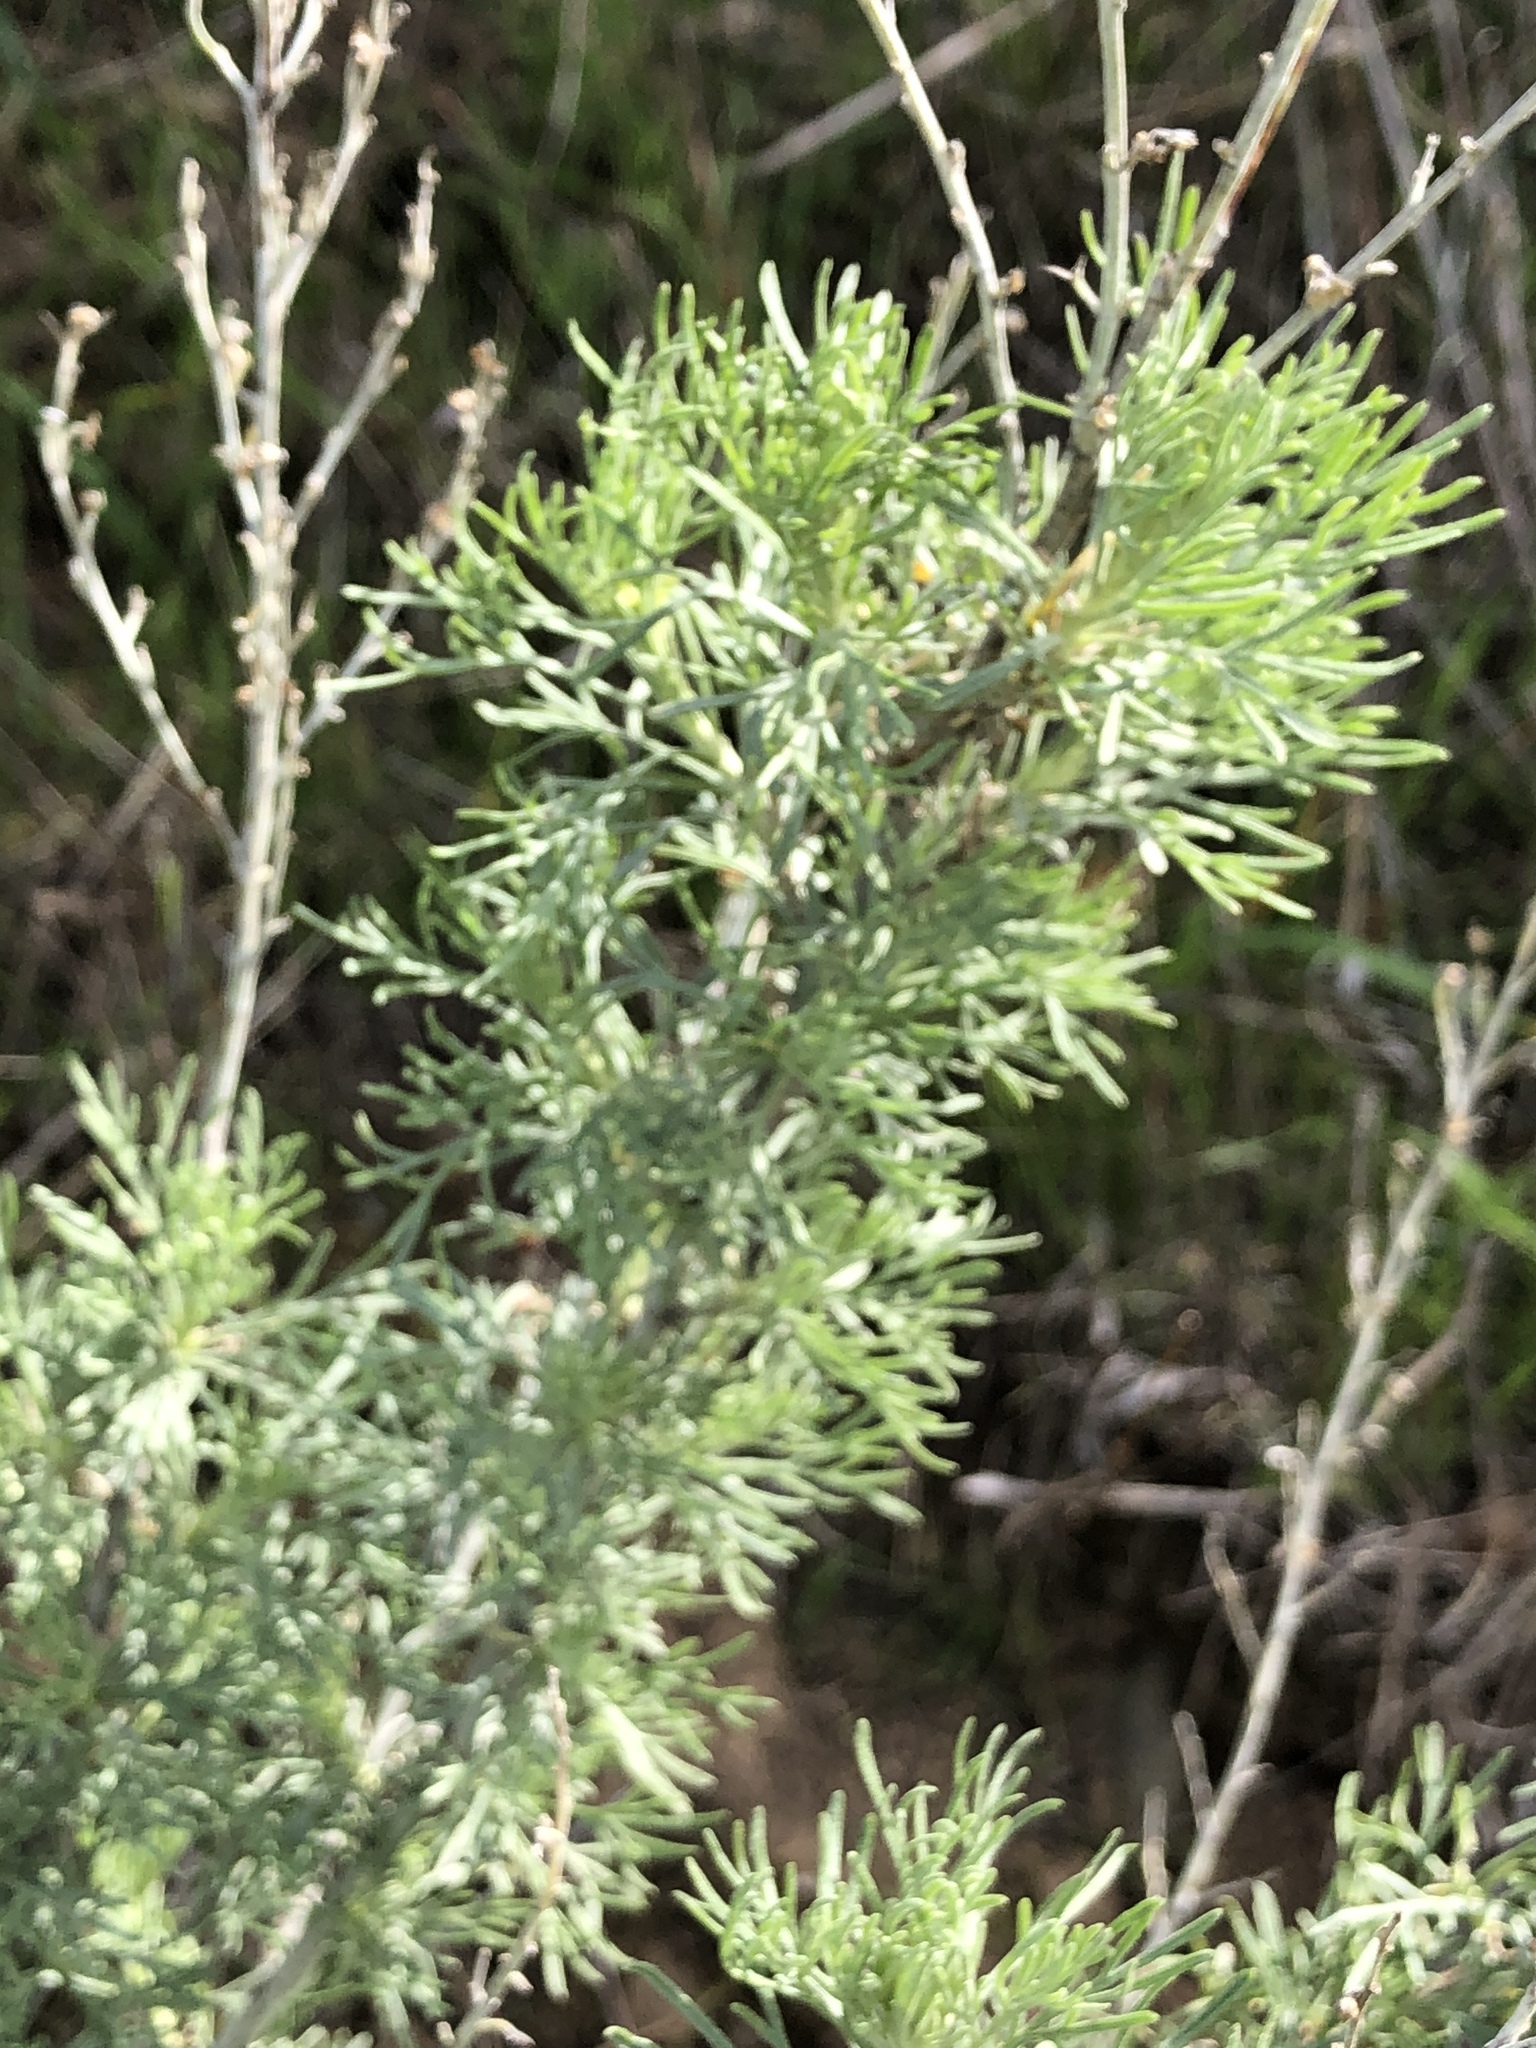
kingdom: Plantae
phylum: Tracheophyta
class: Magnoliopsida
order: Asterales
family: Asteraceae
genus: Artemisia
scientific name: Artemisia californica
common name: California sagebrush
